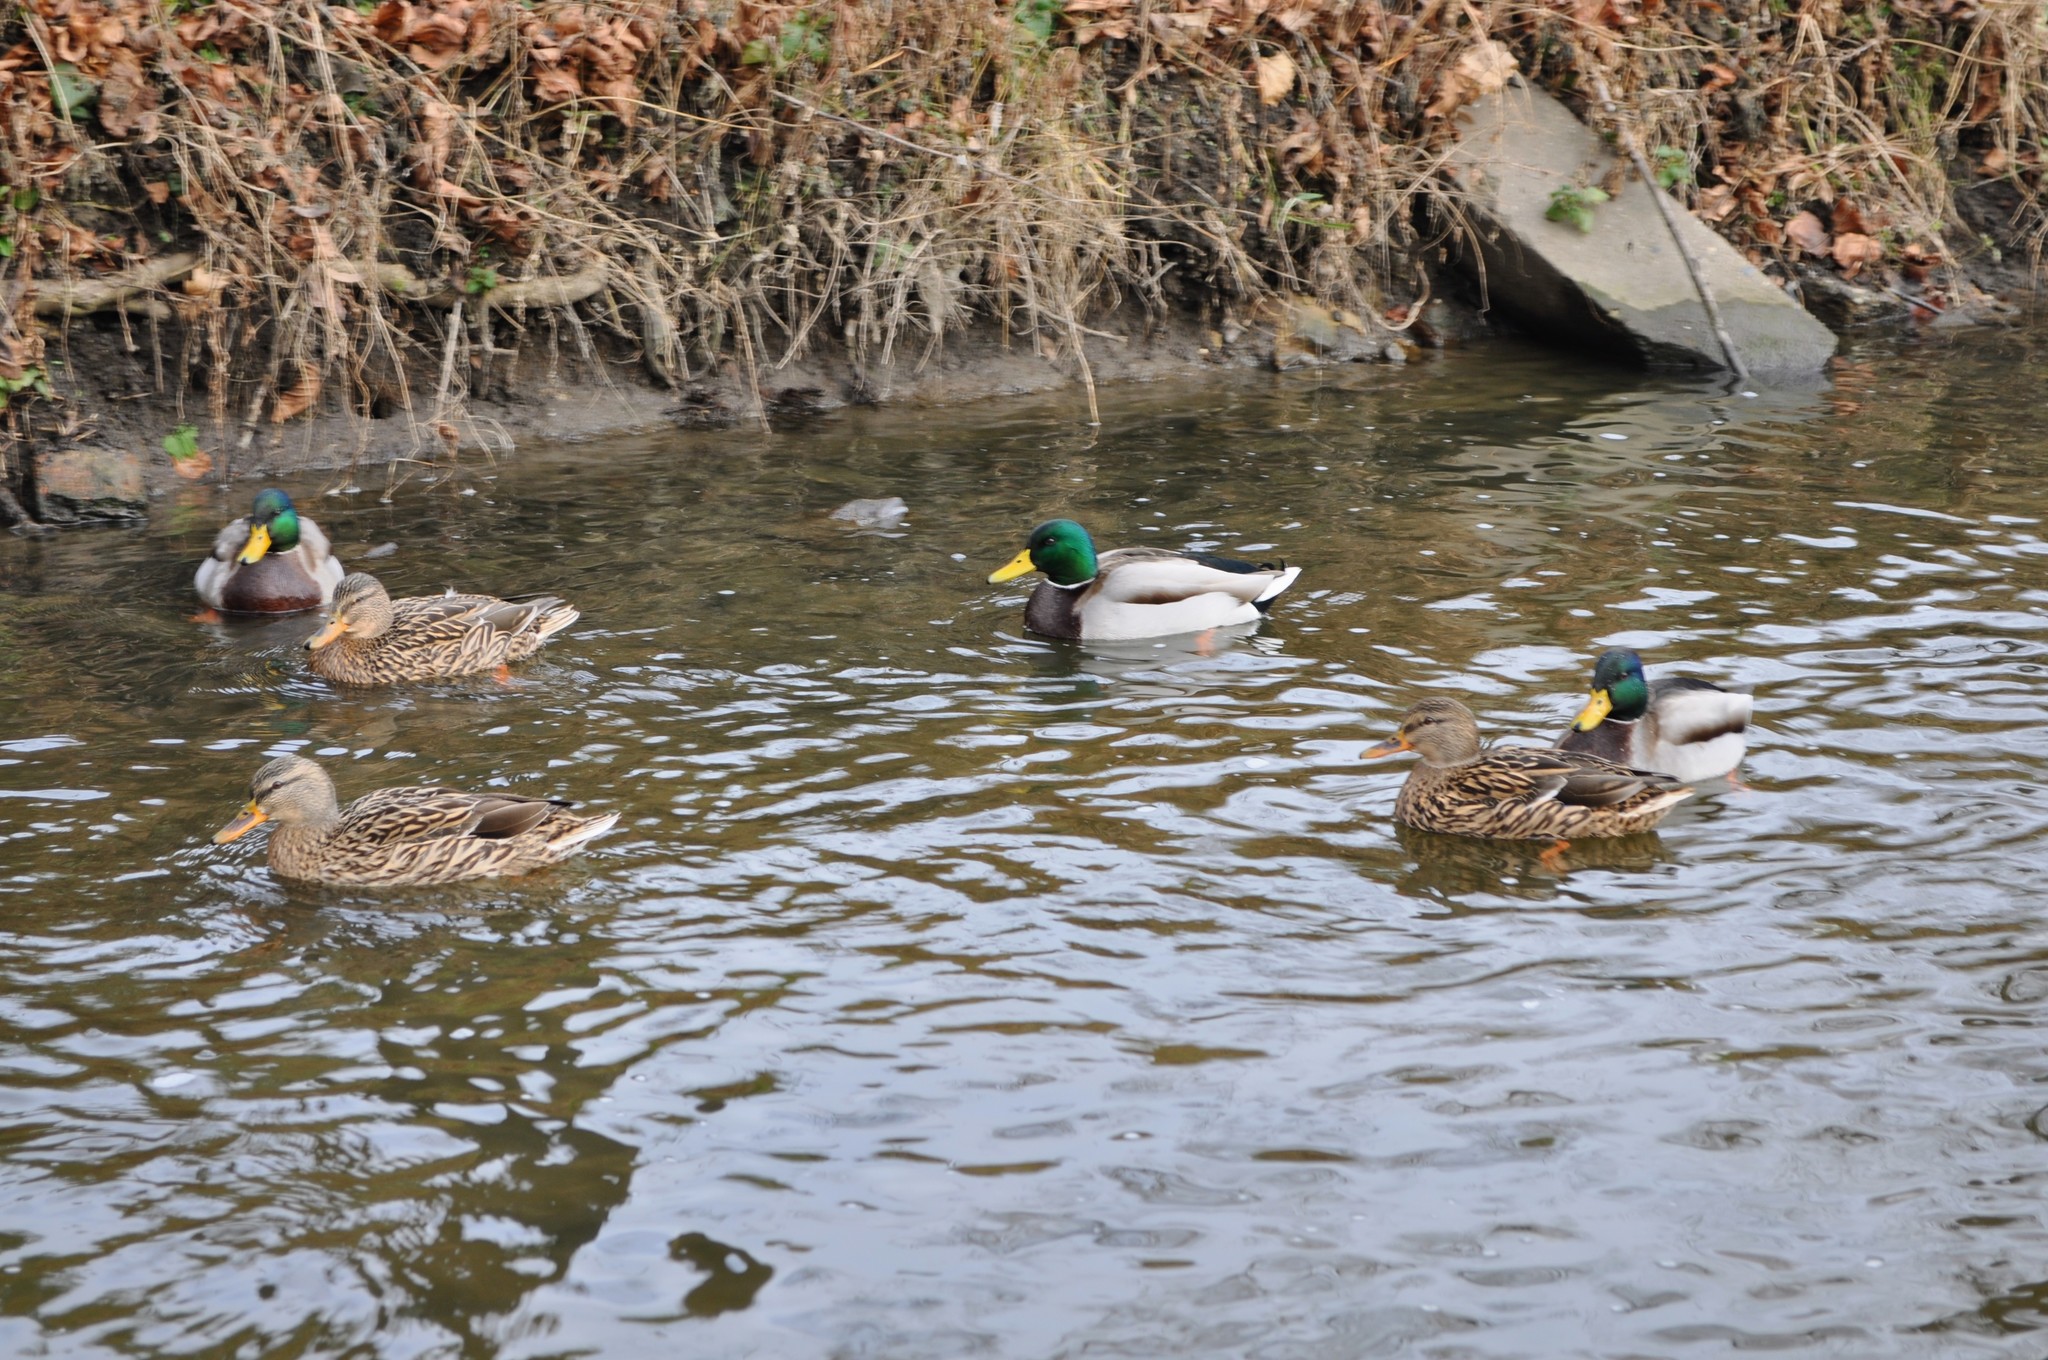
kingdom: Animalia
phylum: Chordata
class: Aves
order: Anseriformes
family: Anatidae
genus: Anas
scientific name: Anas platyrhynchos
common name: Mallard
